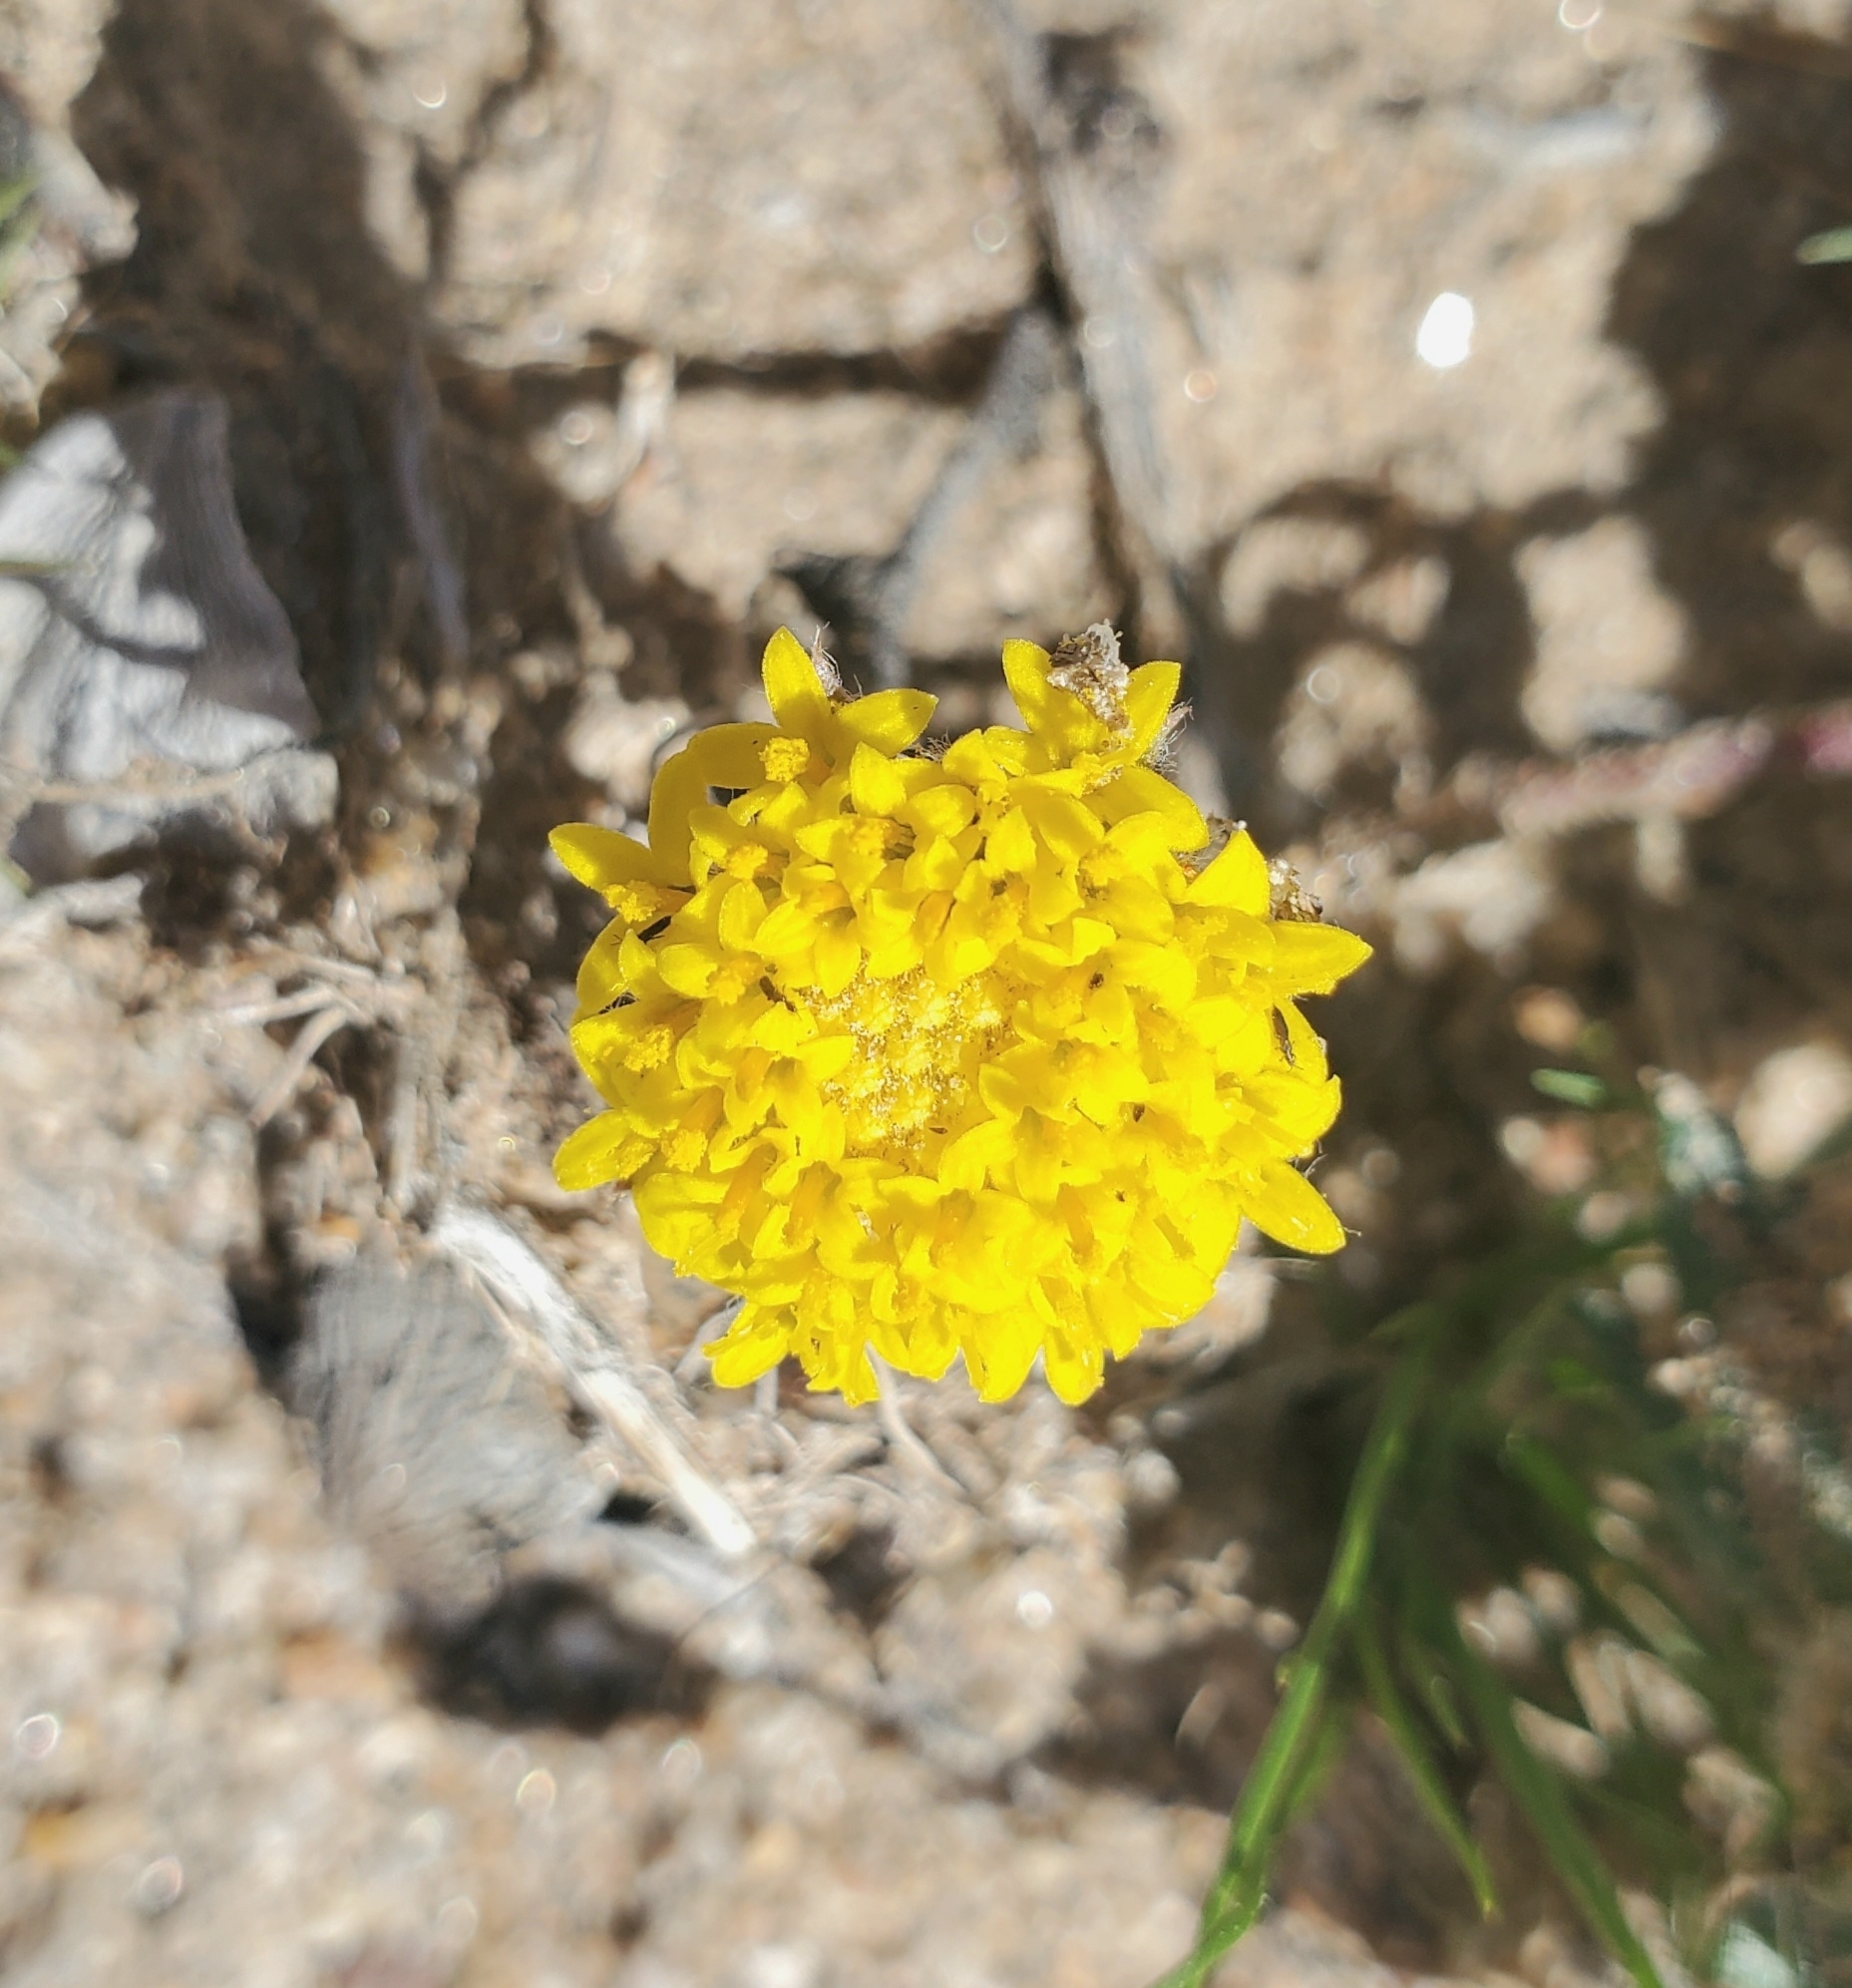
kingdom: Plantae
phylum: Tracheophyta
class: Magnoliopsida
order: Asterales
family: Asteraceae
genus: Trichoptilium
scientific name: Trichoptilium incisum
